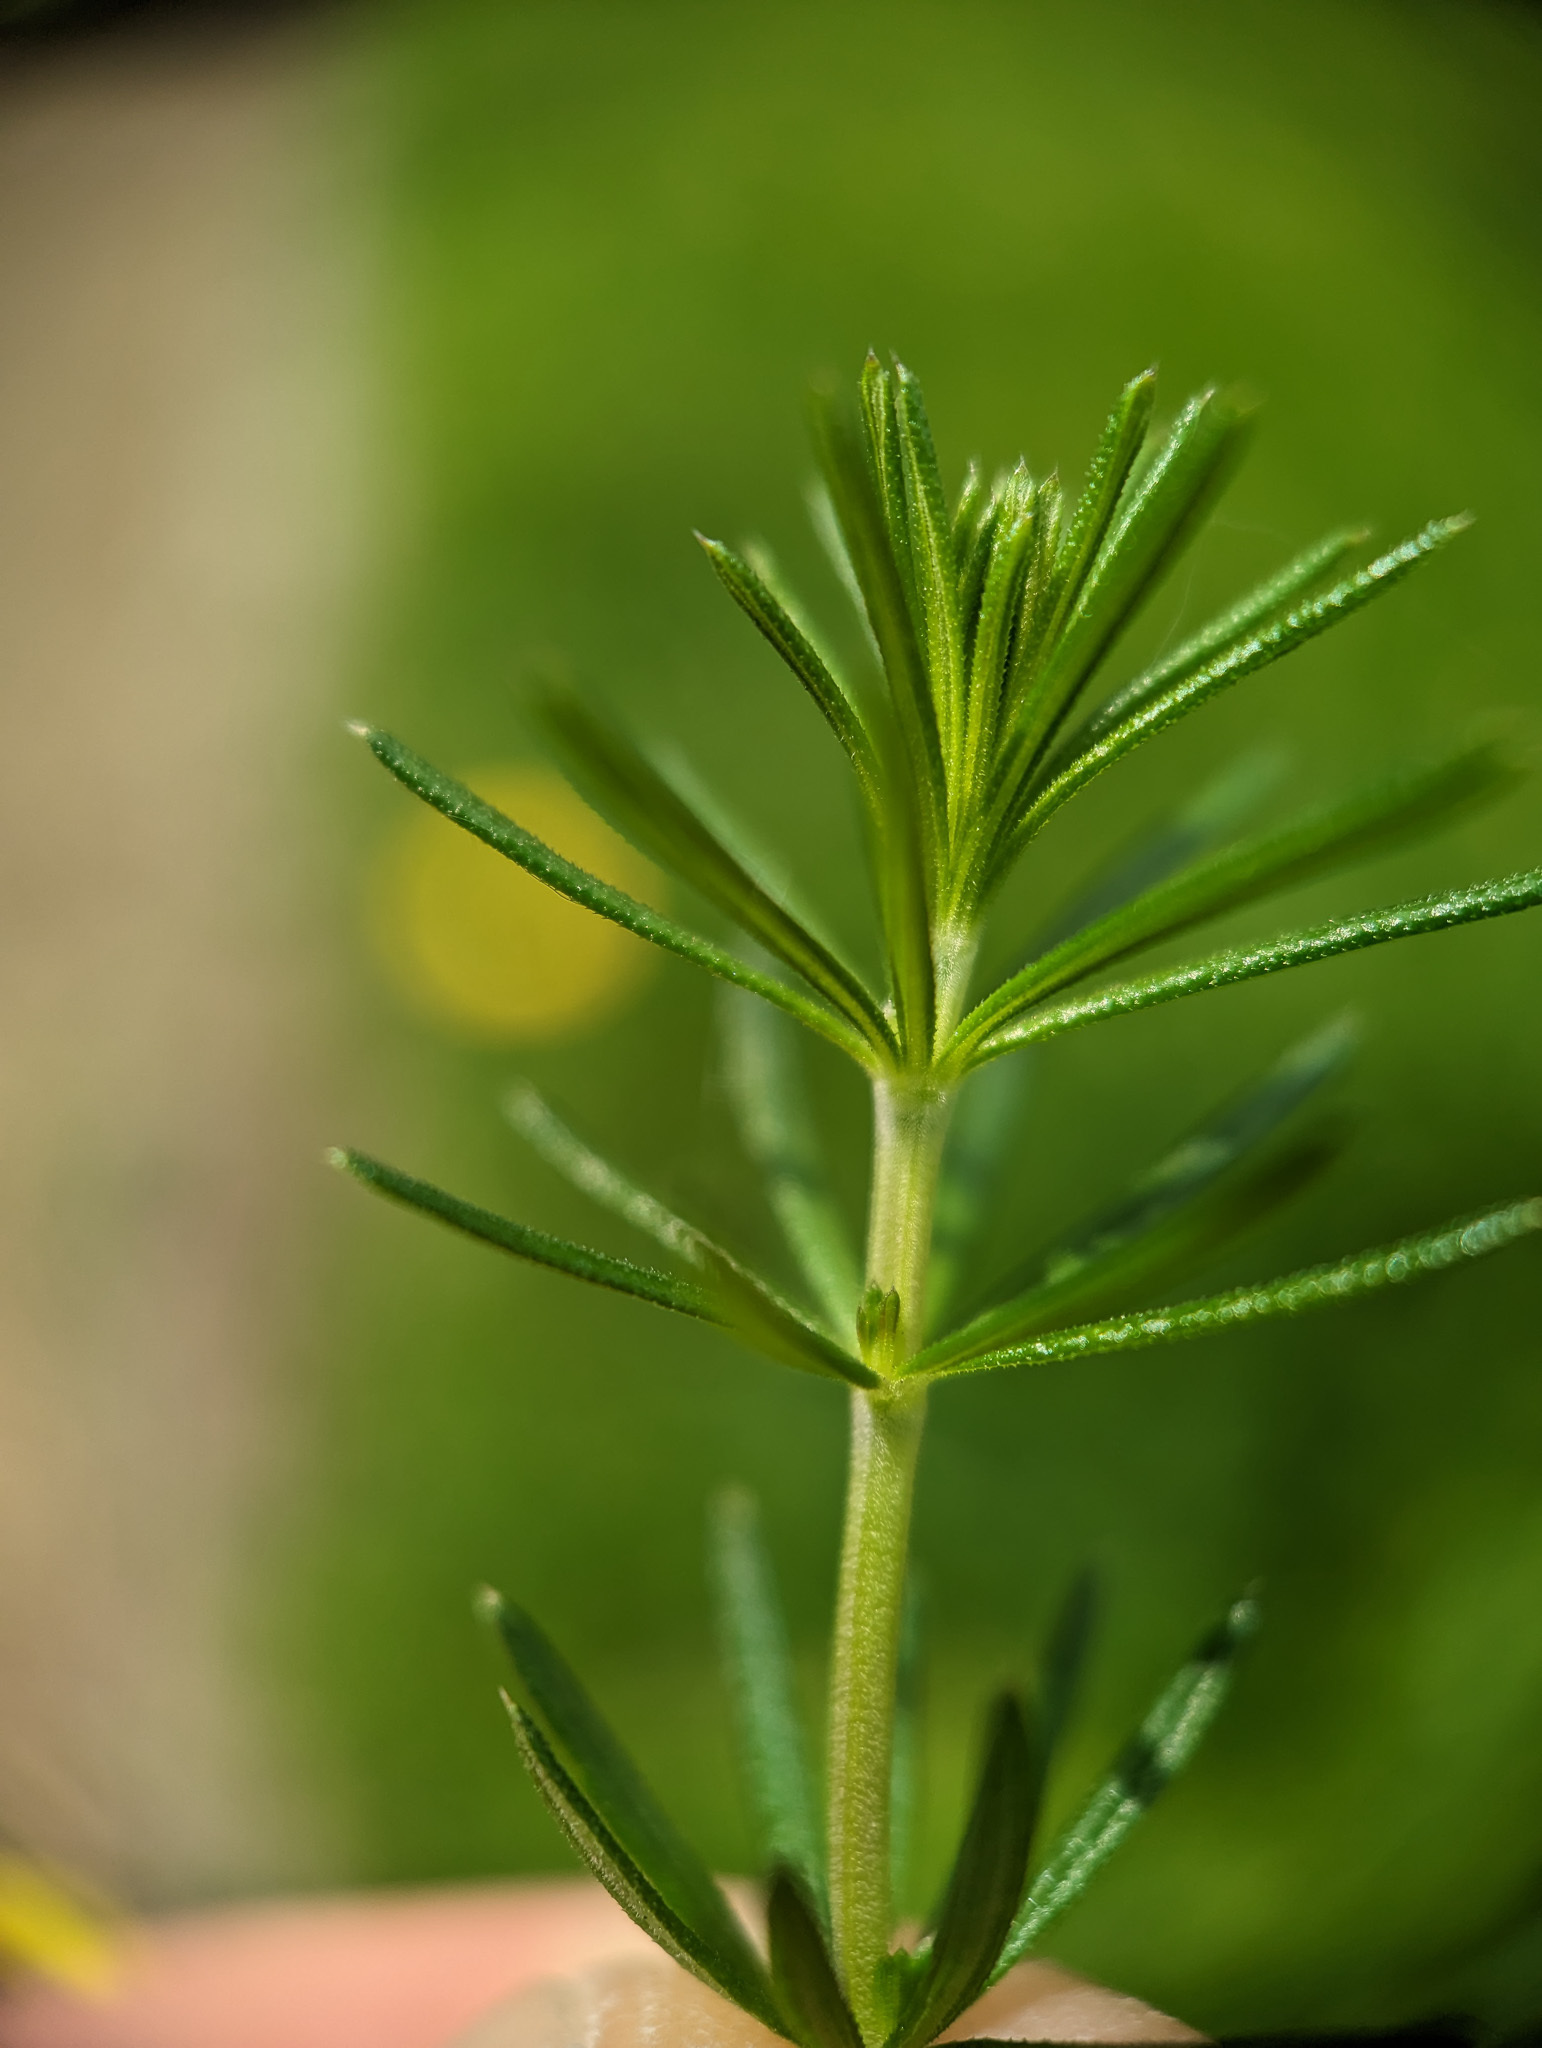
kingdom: Plantae
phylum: Tracheophyta
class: Magnoliopsida
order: Gentianales
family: Rubiaceae
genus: Galium
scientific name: Galium verum
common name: Lady's bedstraw
